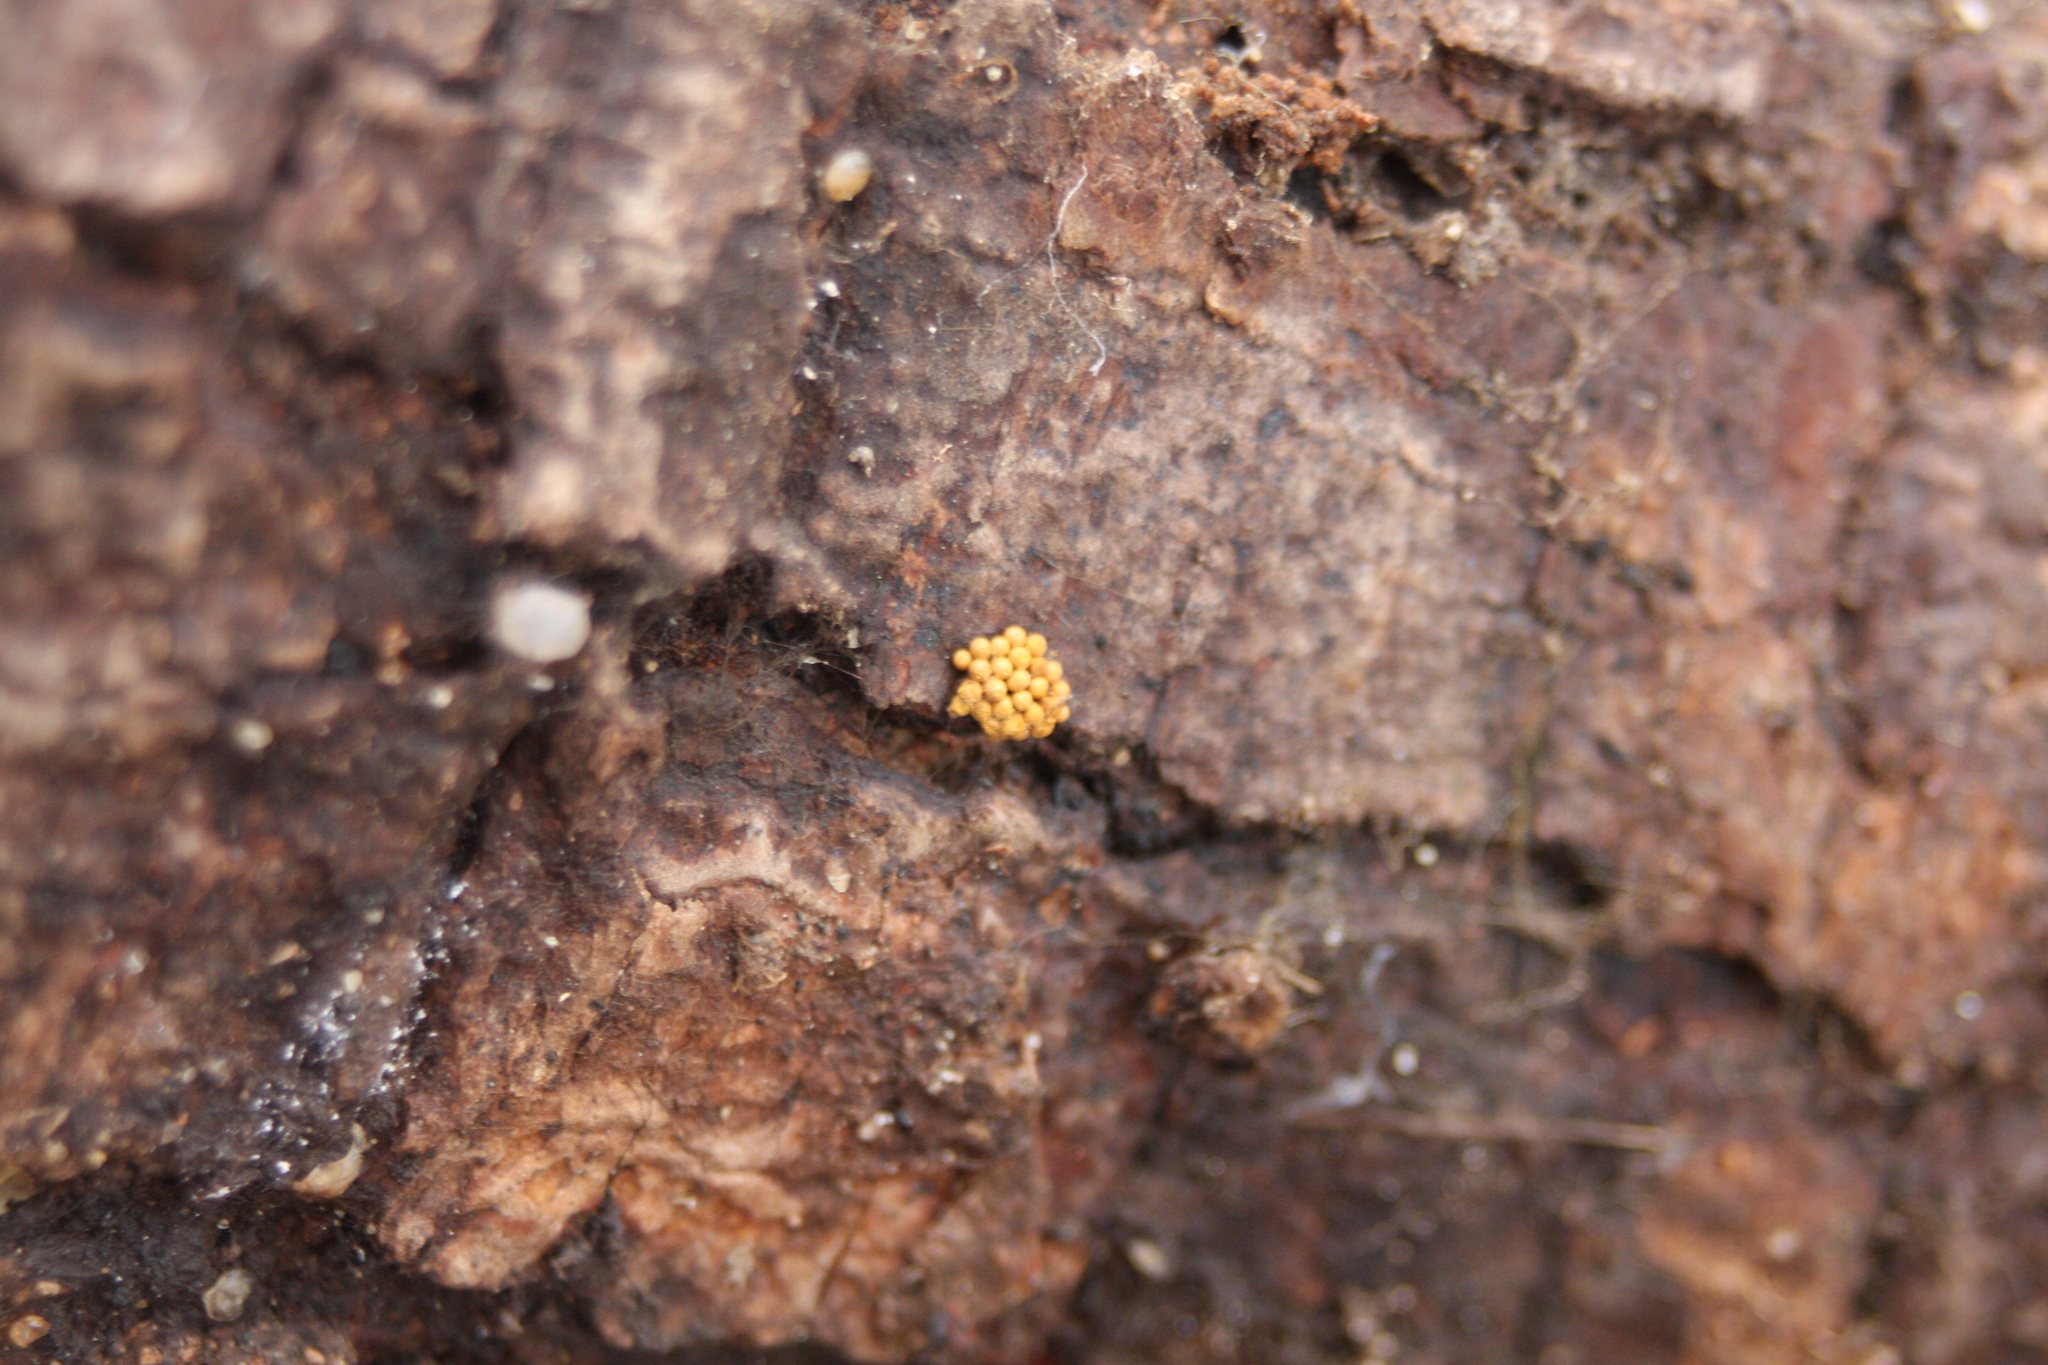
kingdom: Protozoa
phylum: Mycetozoa
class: Myxomycetes
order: Trichiales
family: Trichiaceae
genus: Oligonema
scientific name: Oligonema schweinitzii
